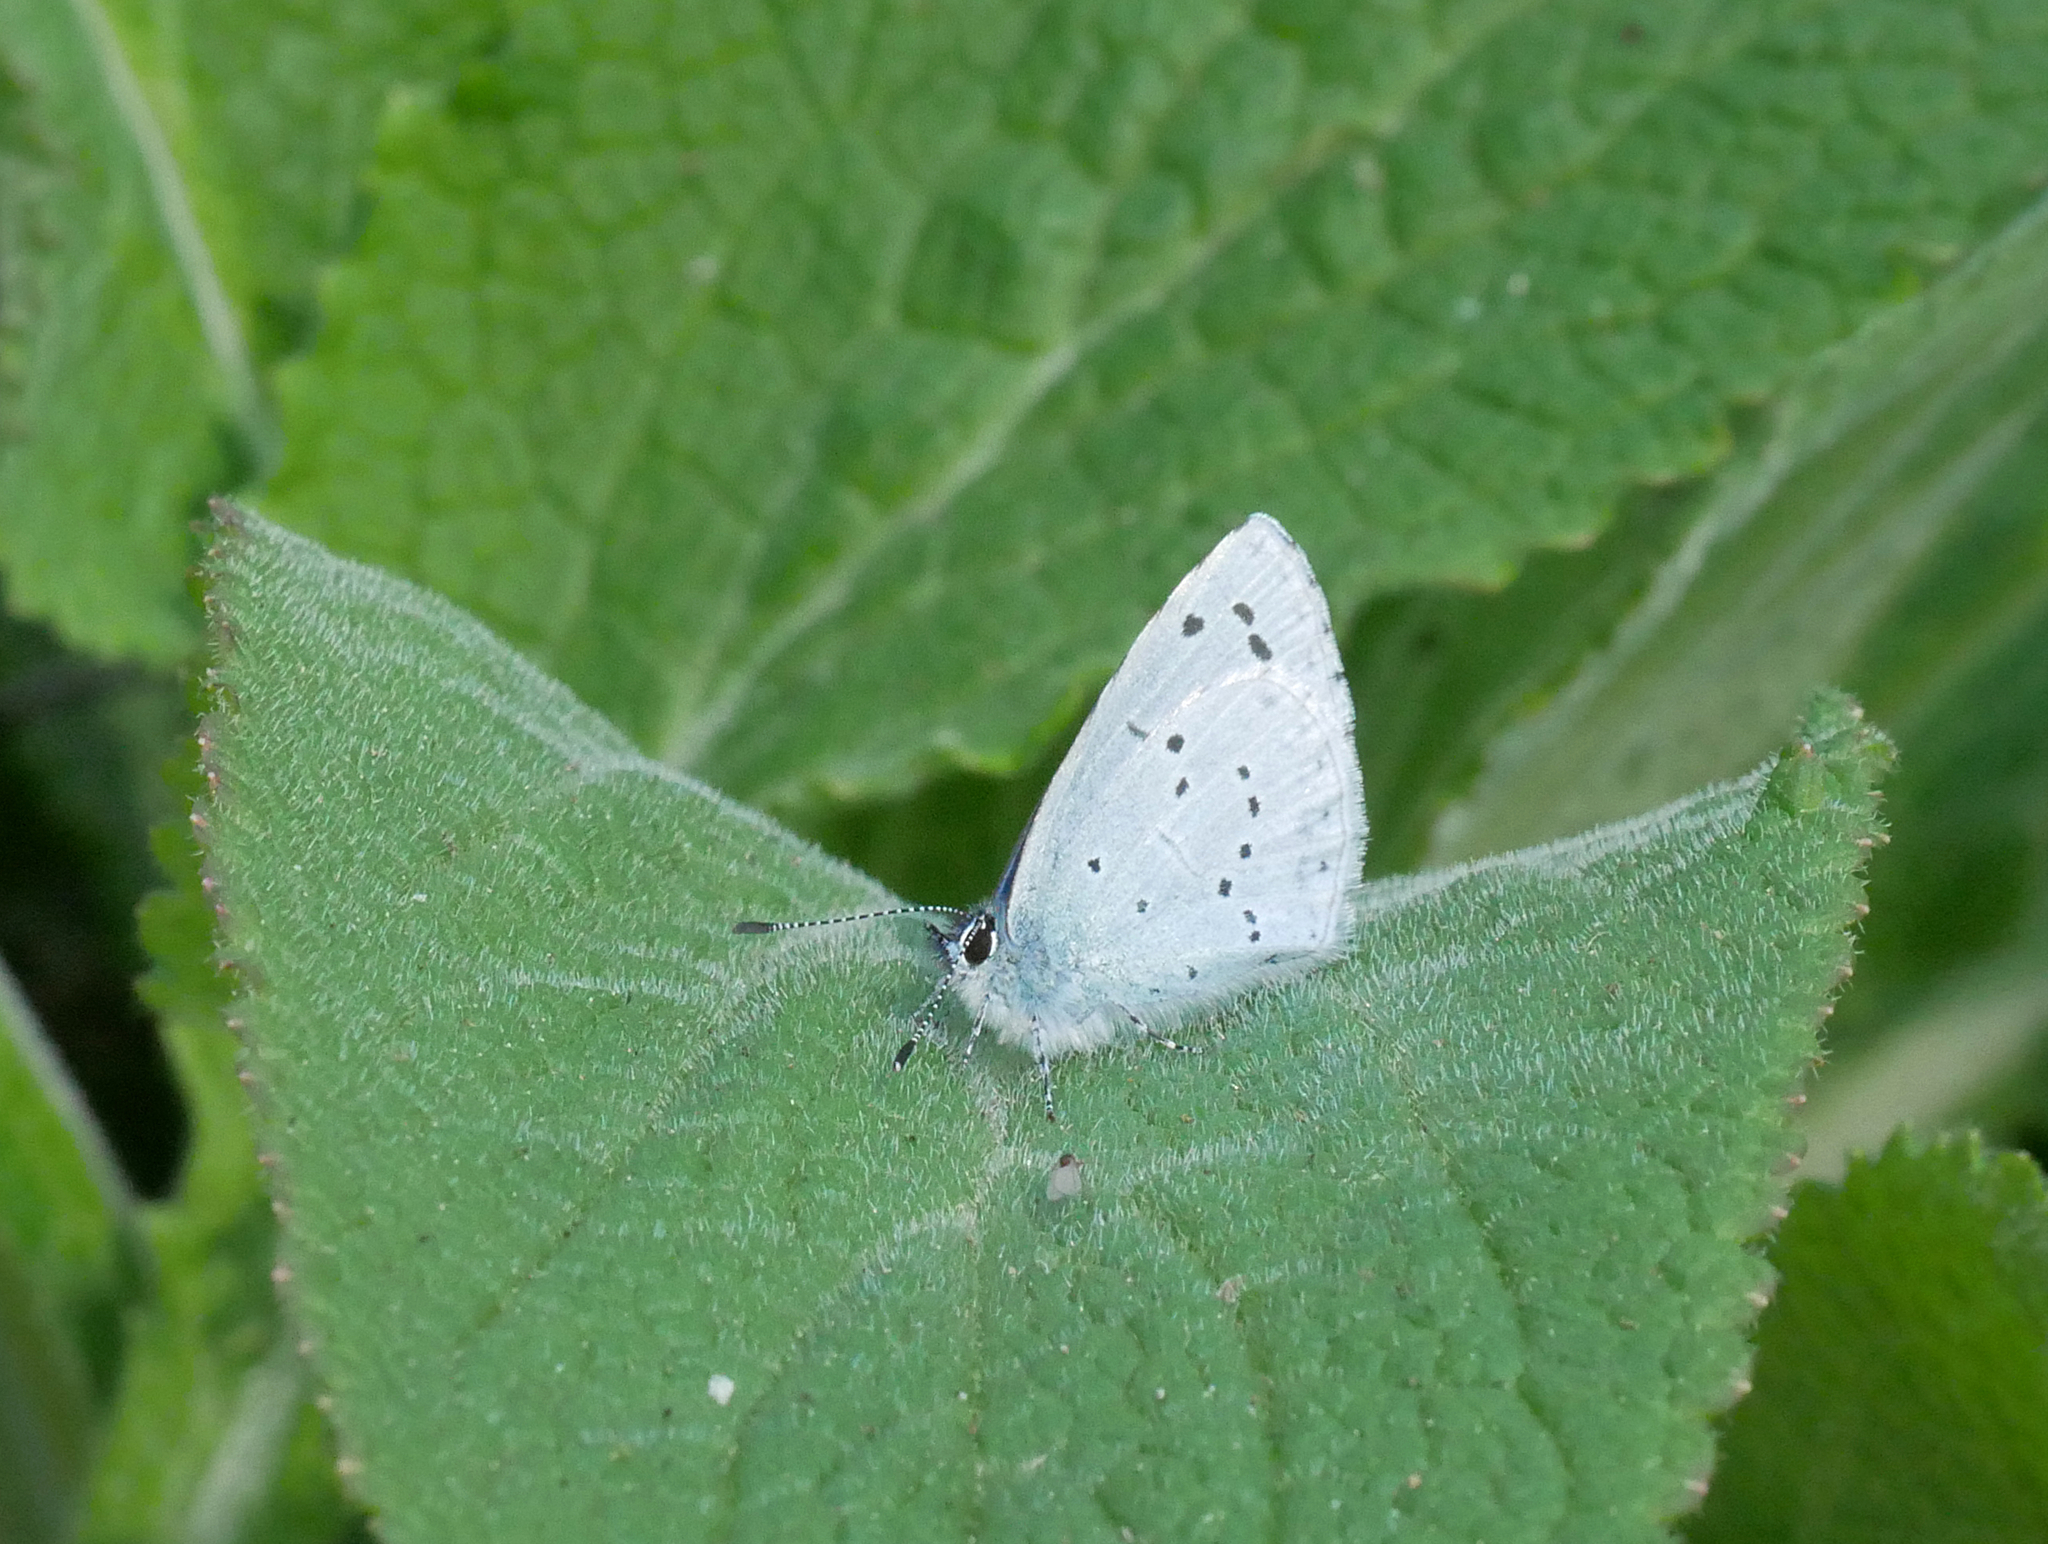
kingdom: Animalia
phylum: Arthropoda
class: Insecta
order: Lepidoptera
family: Lycaenidae
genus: Celastrina
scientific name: Celastrina argiolus
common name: Holly blue
